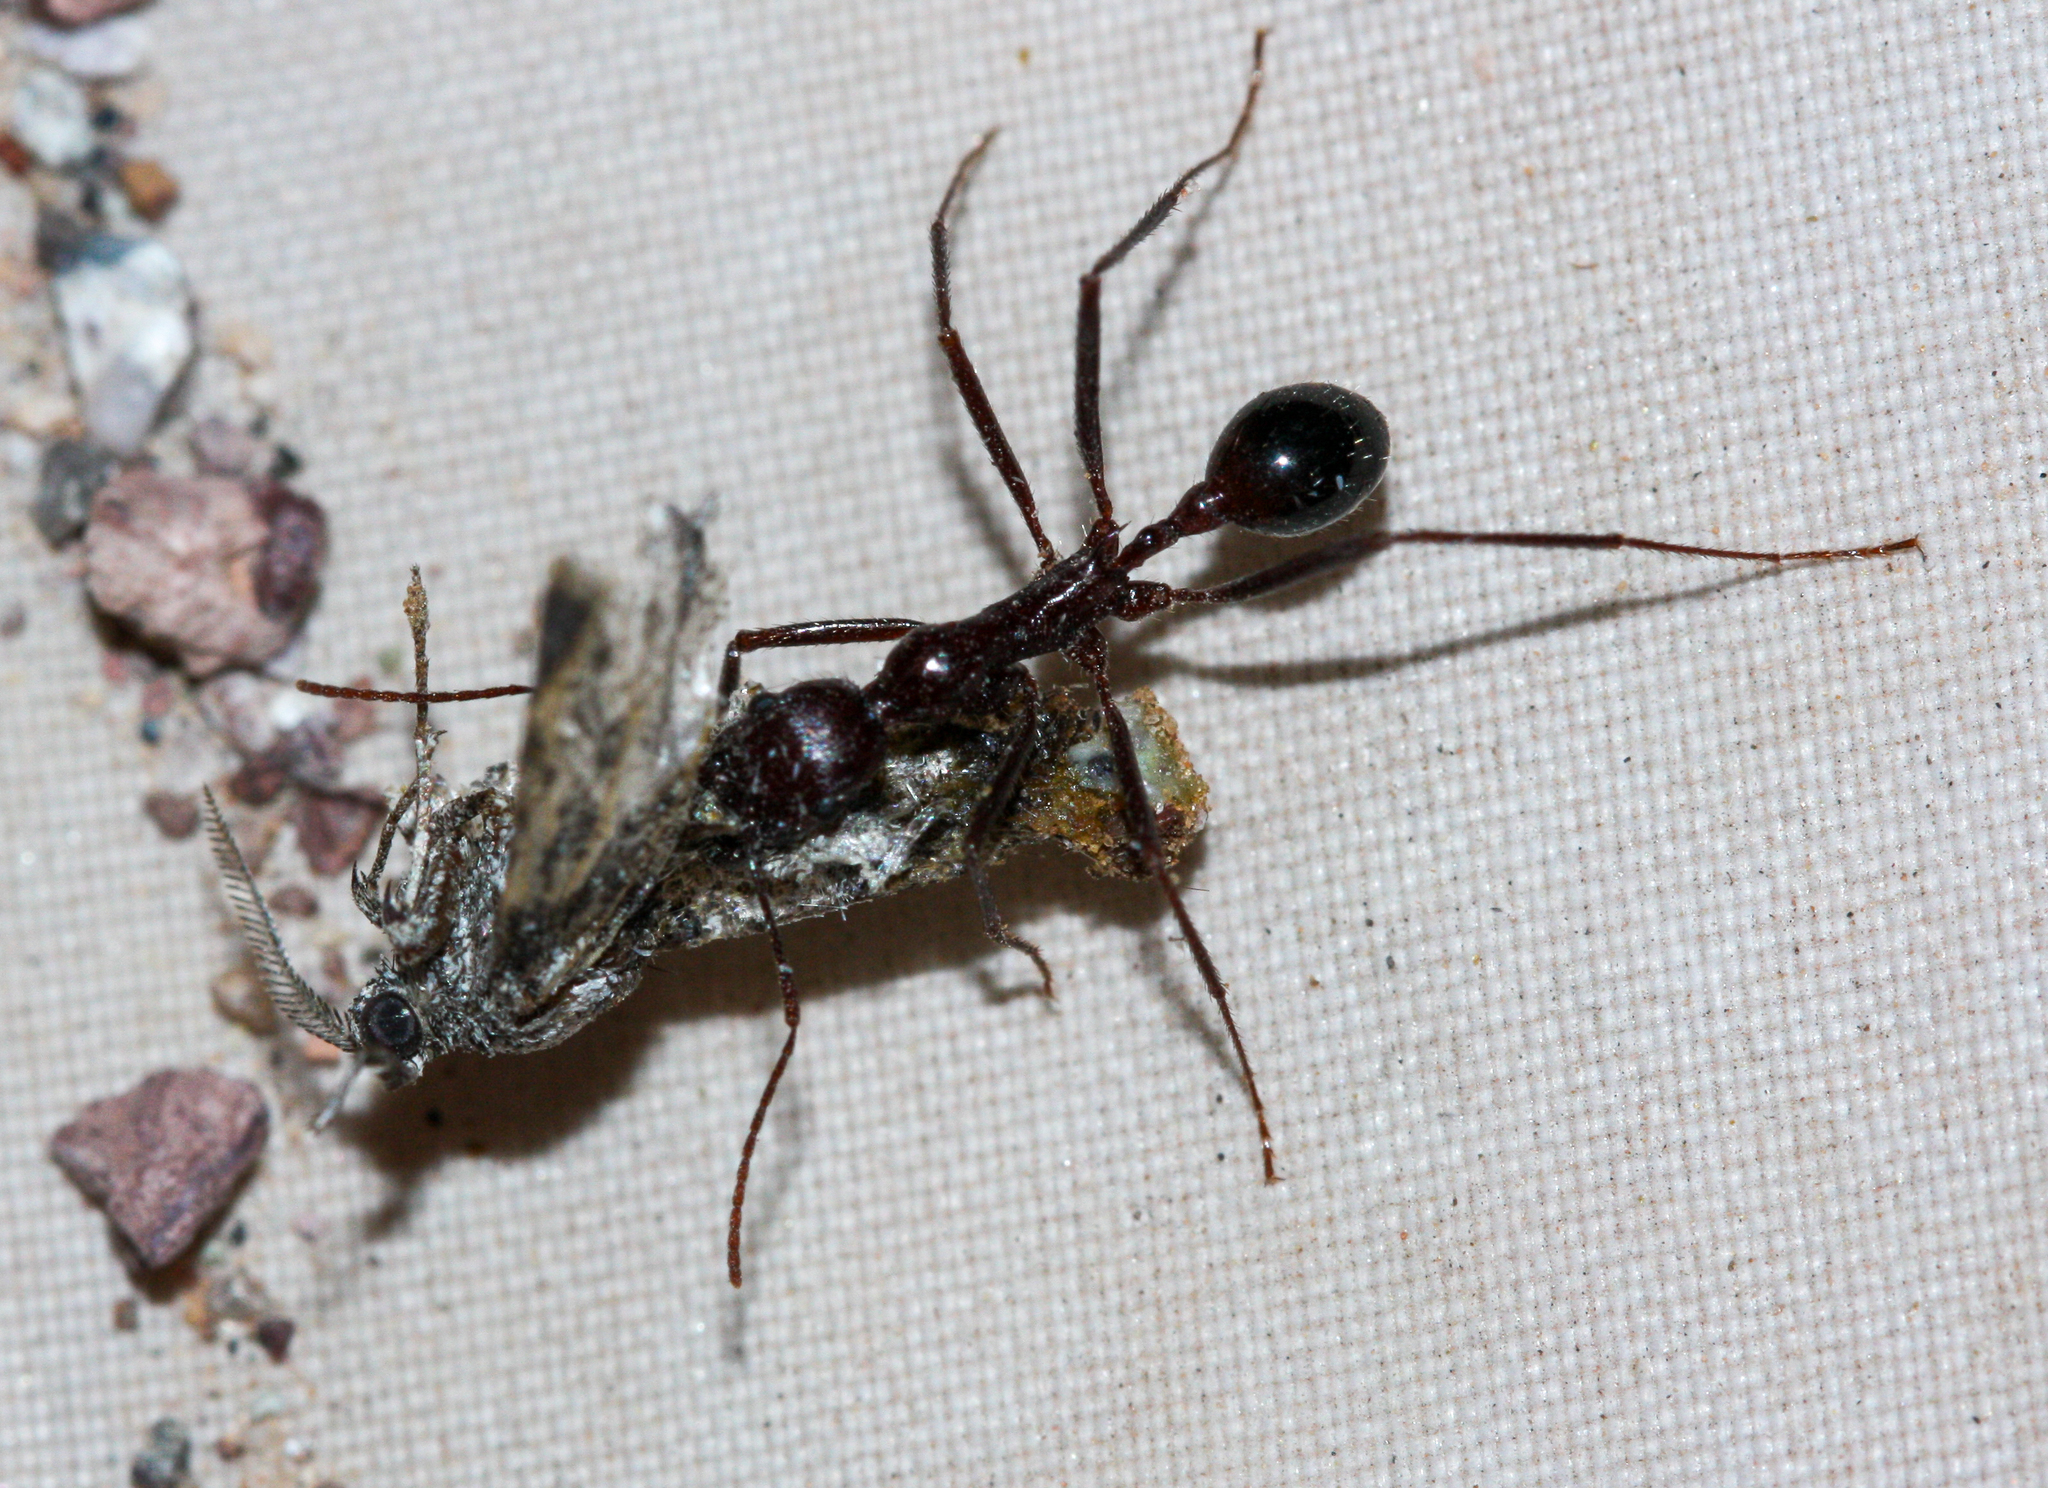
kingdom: Animalia
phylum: Arthropoda
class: Insecta
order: Hymenoptera
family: Formicidae
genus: Novomessor
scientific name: Novomessor cockerelli
